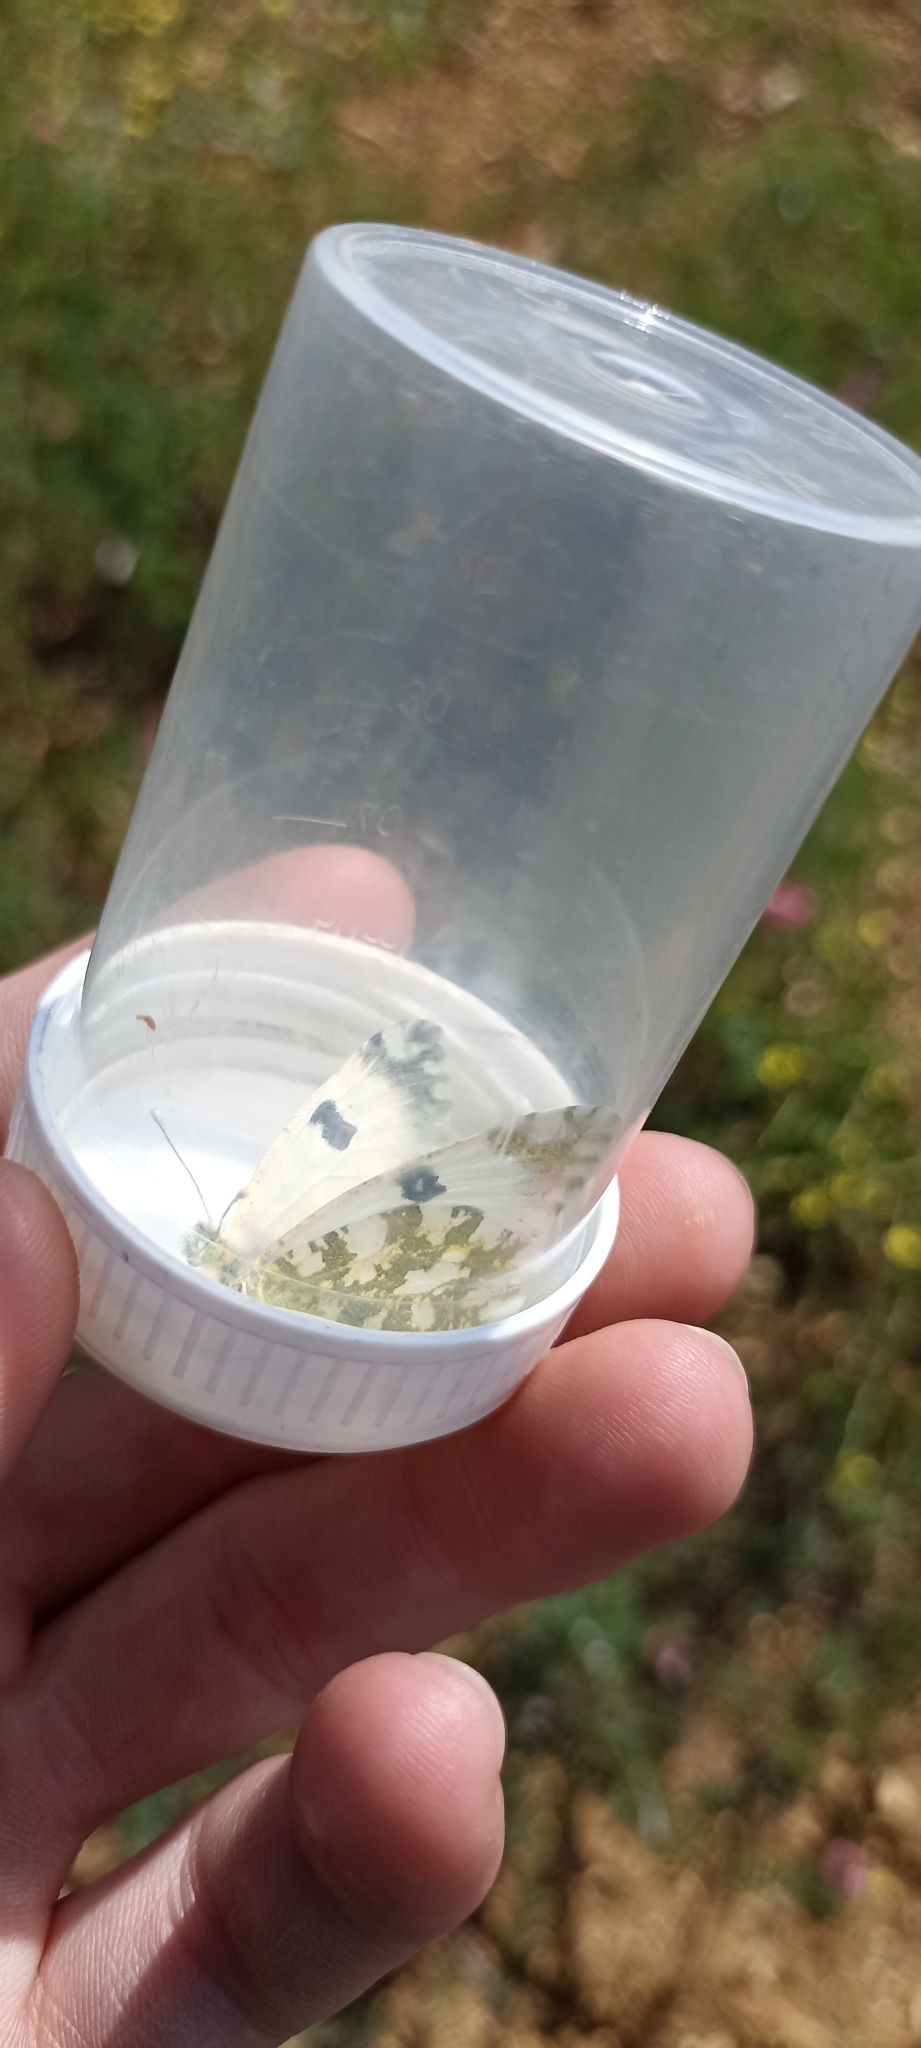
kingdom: Animalia
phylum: Arthropoda
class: Insecta
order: Lepidoptera
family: Pieridae
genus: Euchloe
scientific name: Euchloe crameri
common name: Western dappled white
